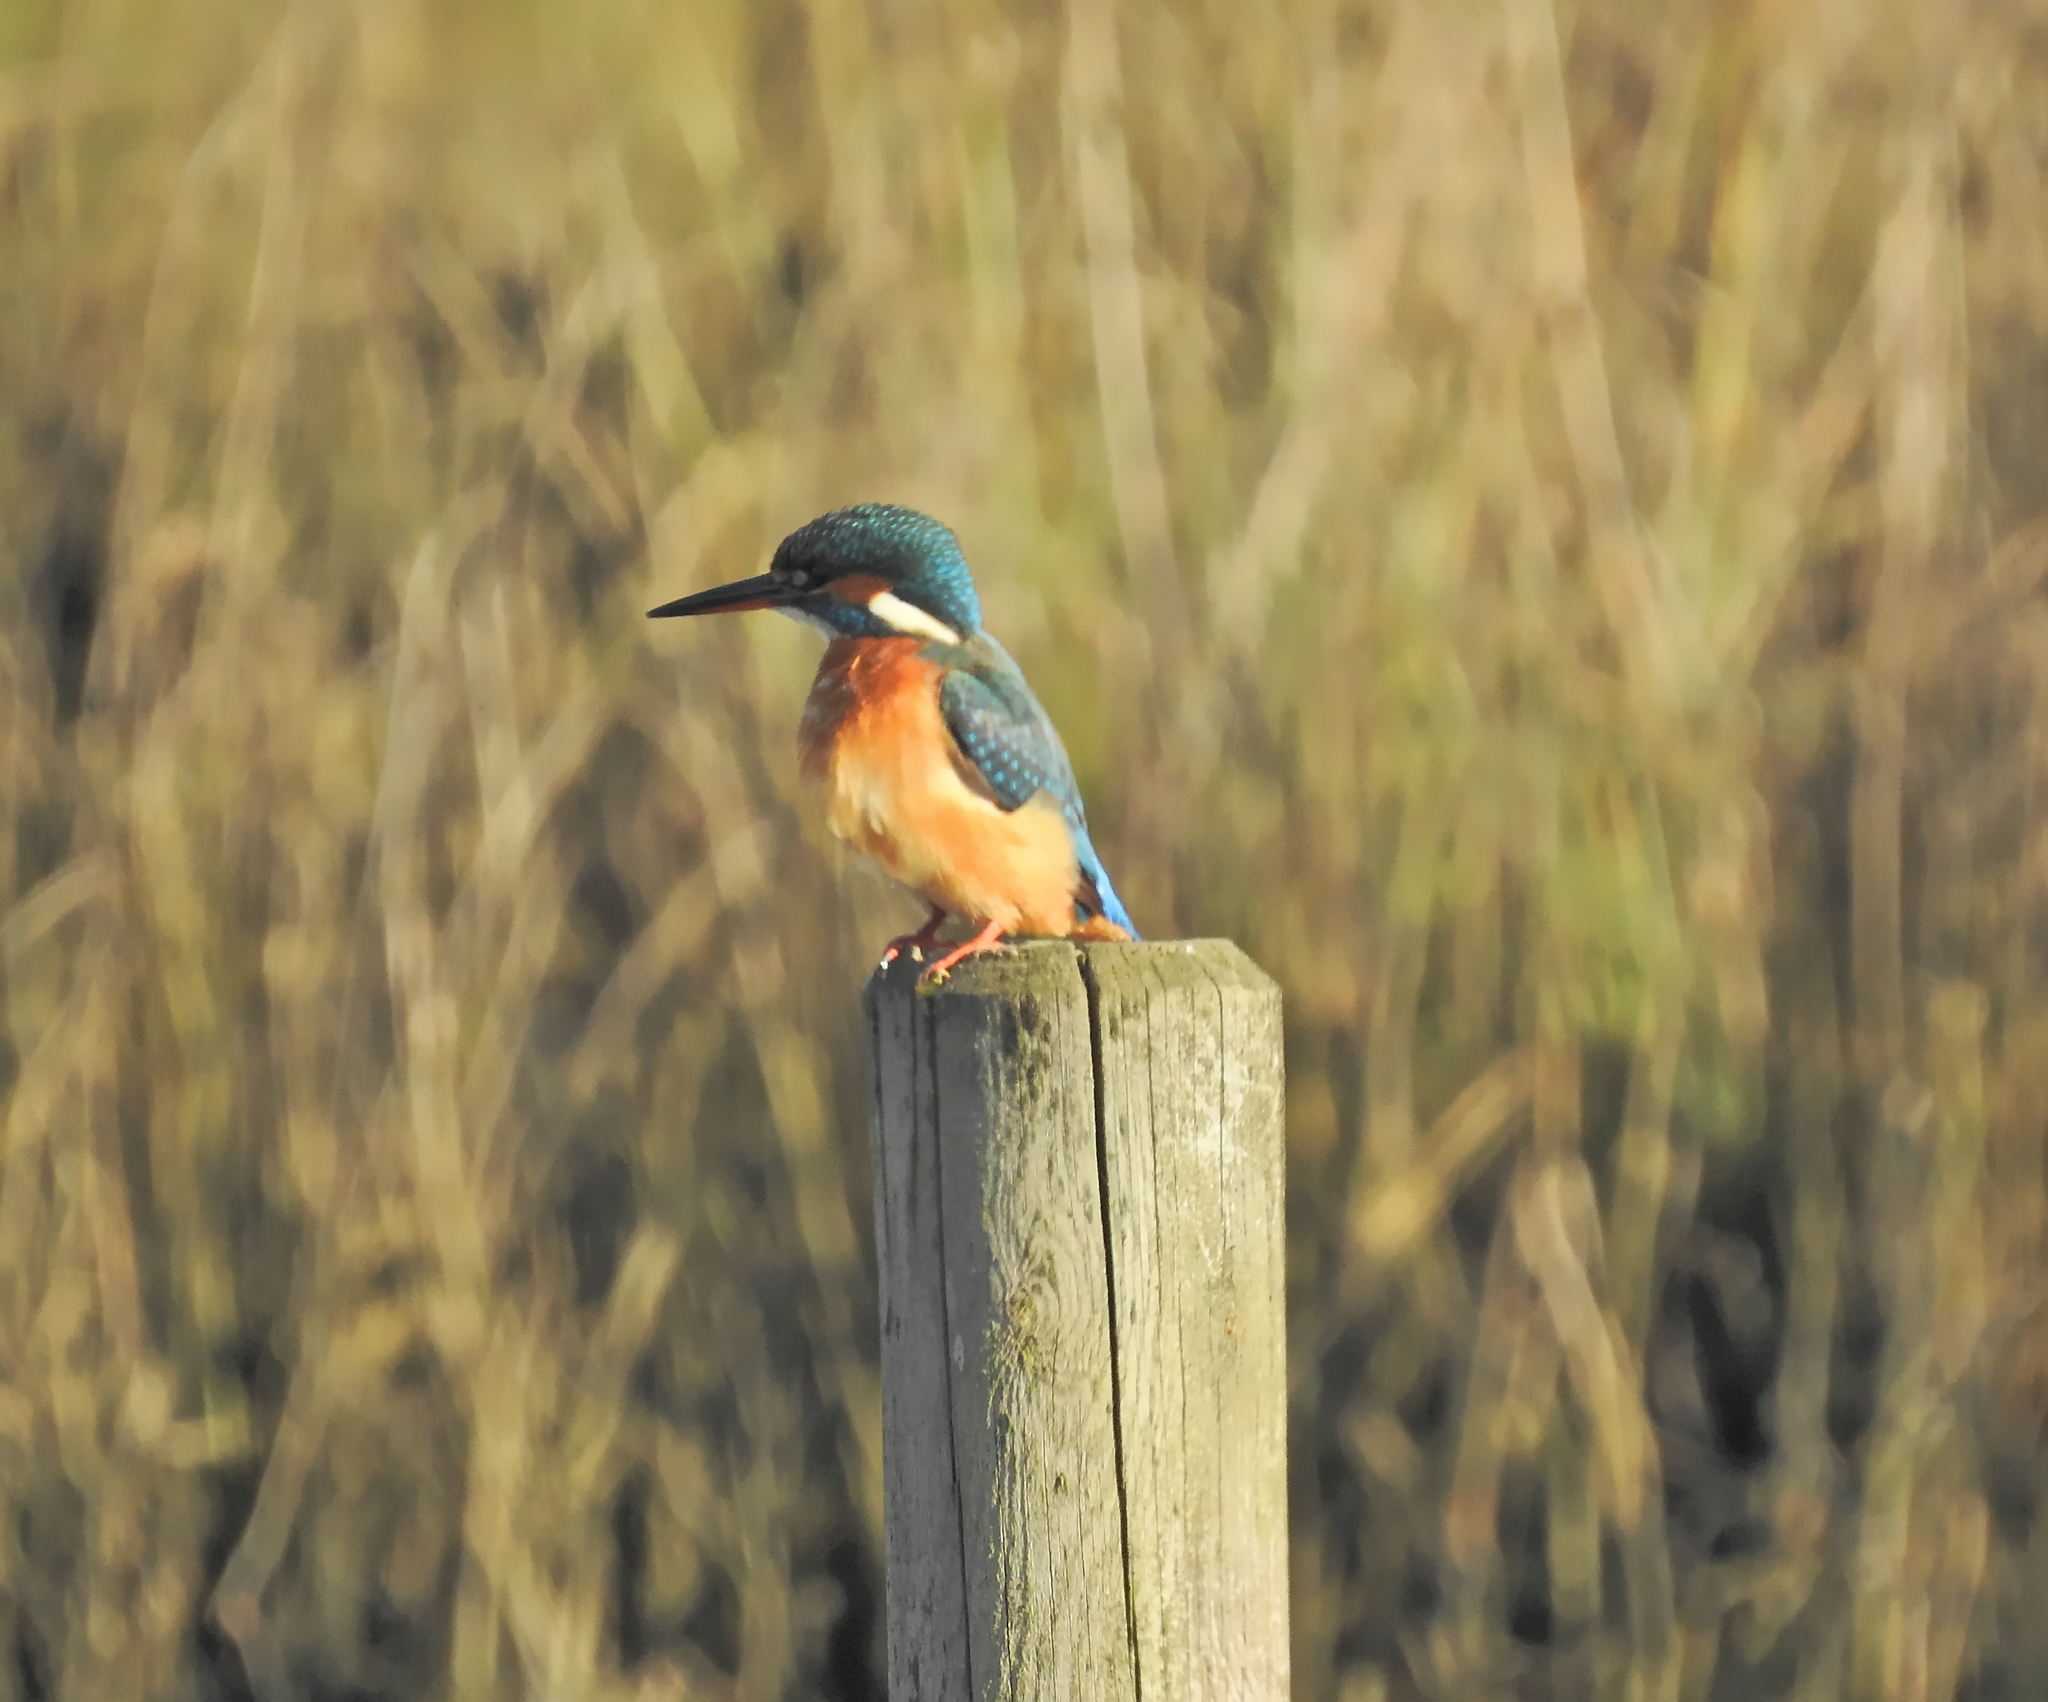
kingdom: Animalia
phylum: Chordata
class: Aves
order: Coraciiformes
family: Alcedinidae
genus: Alcedo
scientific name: Alcedo atthis
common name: Common kingfisher
